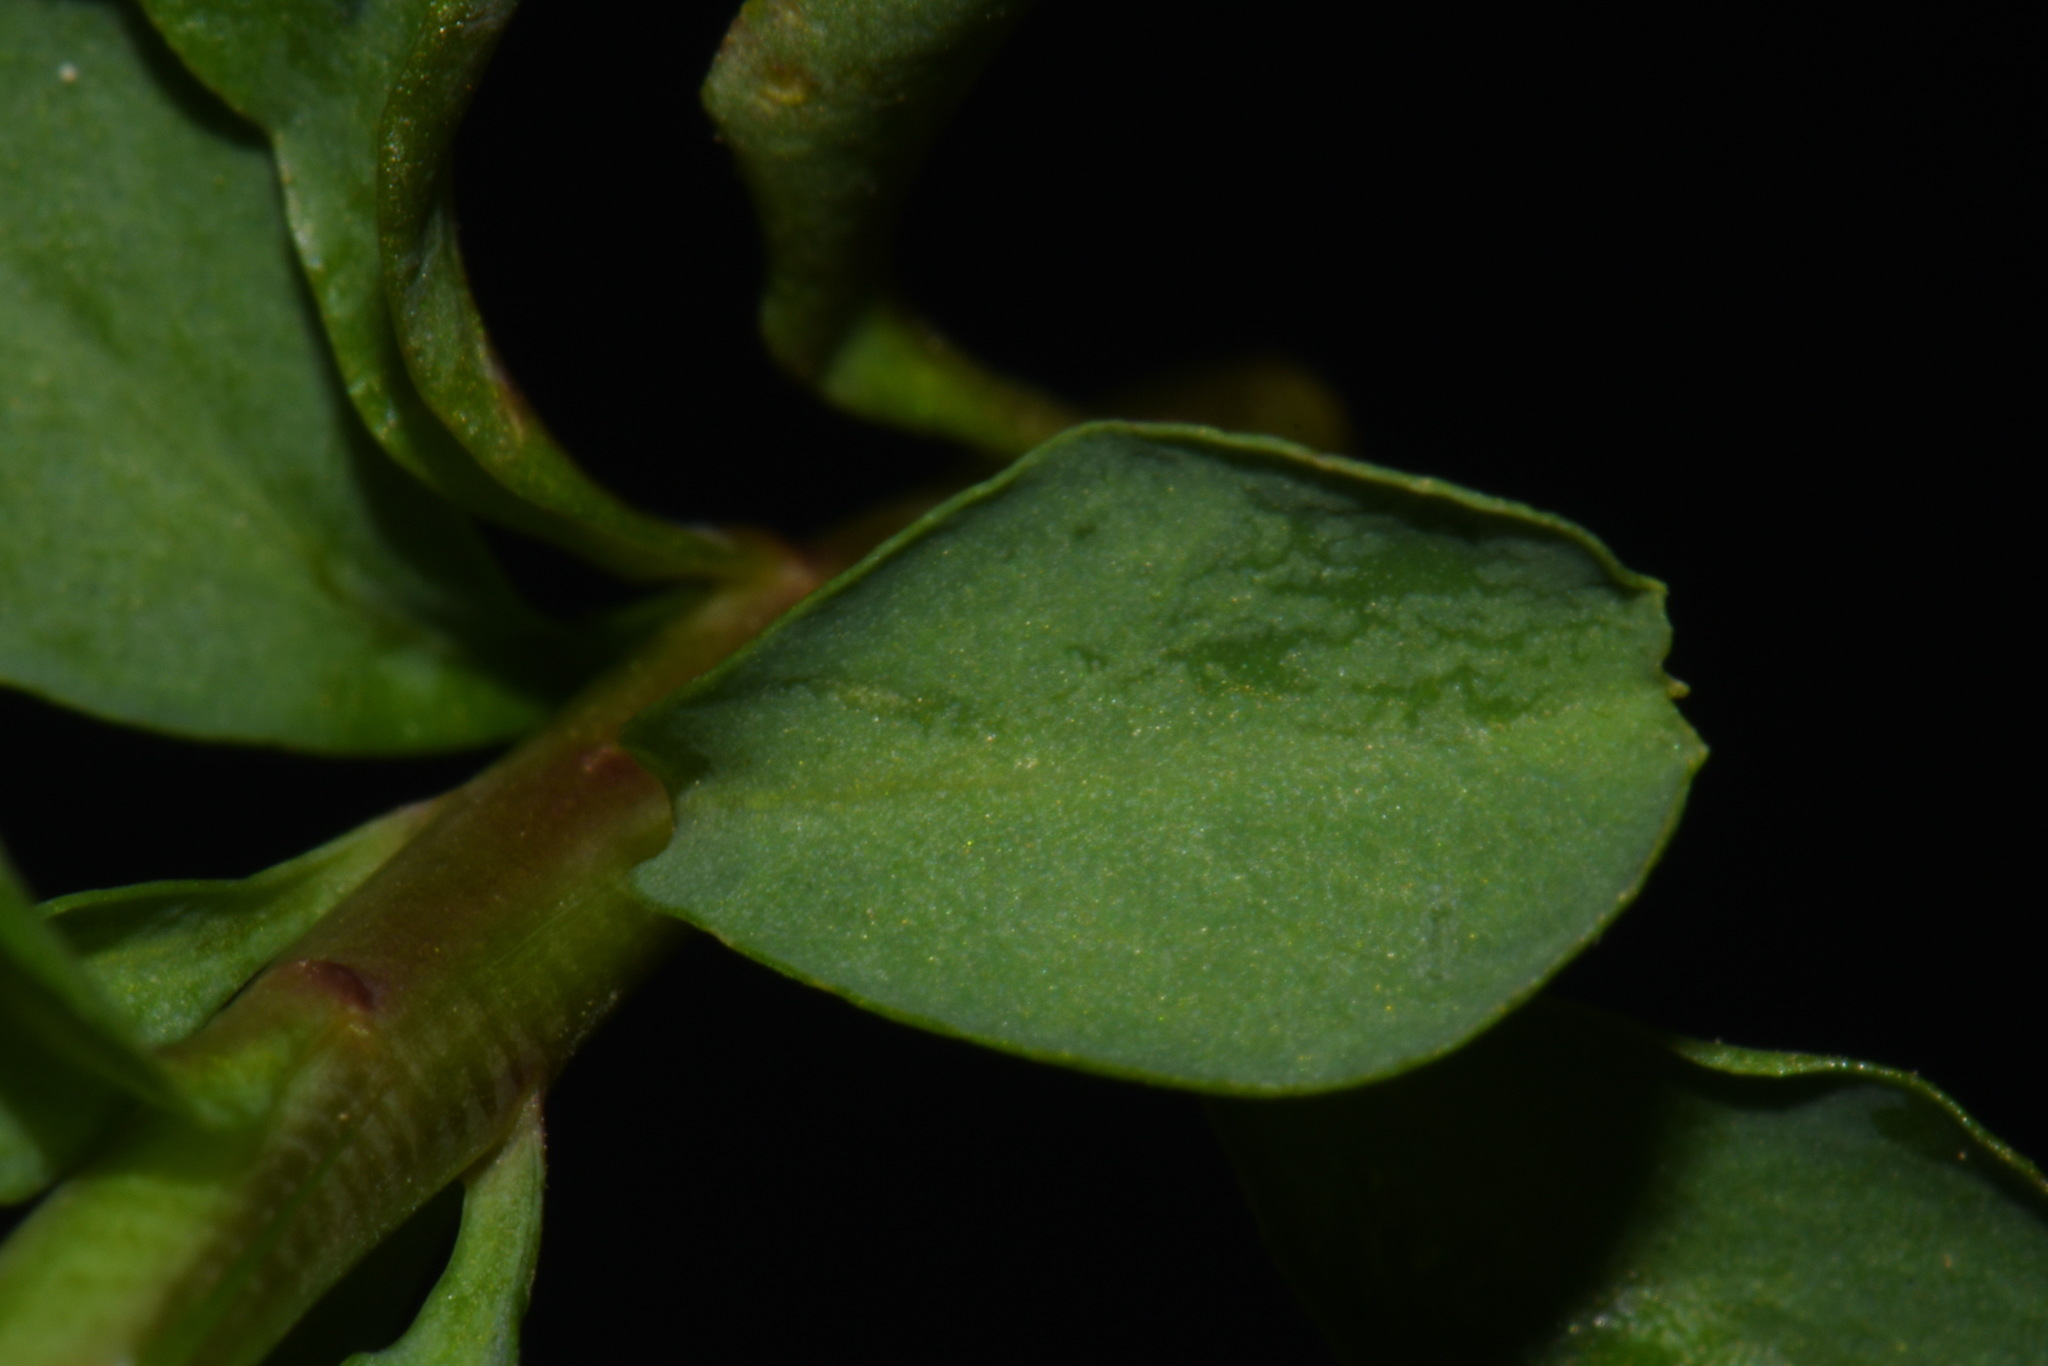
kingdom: Plantae
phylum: Tracheophyta
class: Magnoliopsida
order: Malpighiales
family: Euphorbiaceae
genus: Euphorbia
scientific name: Euphorbia commutata
